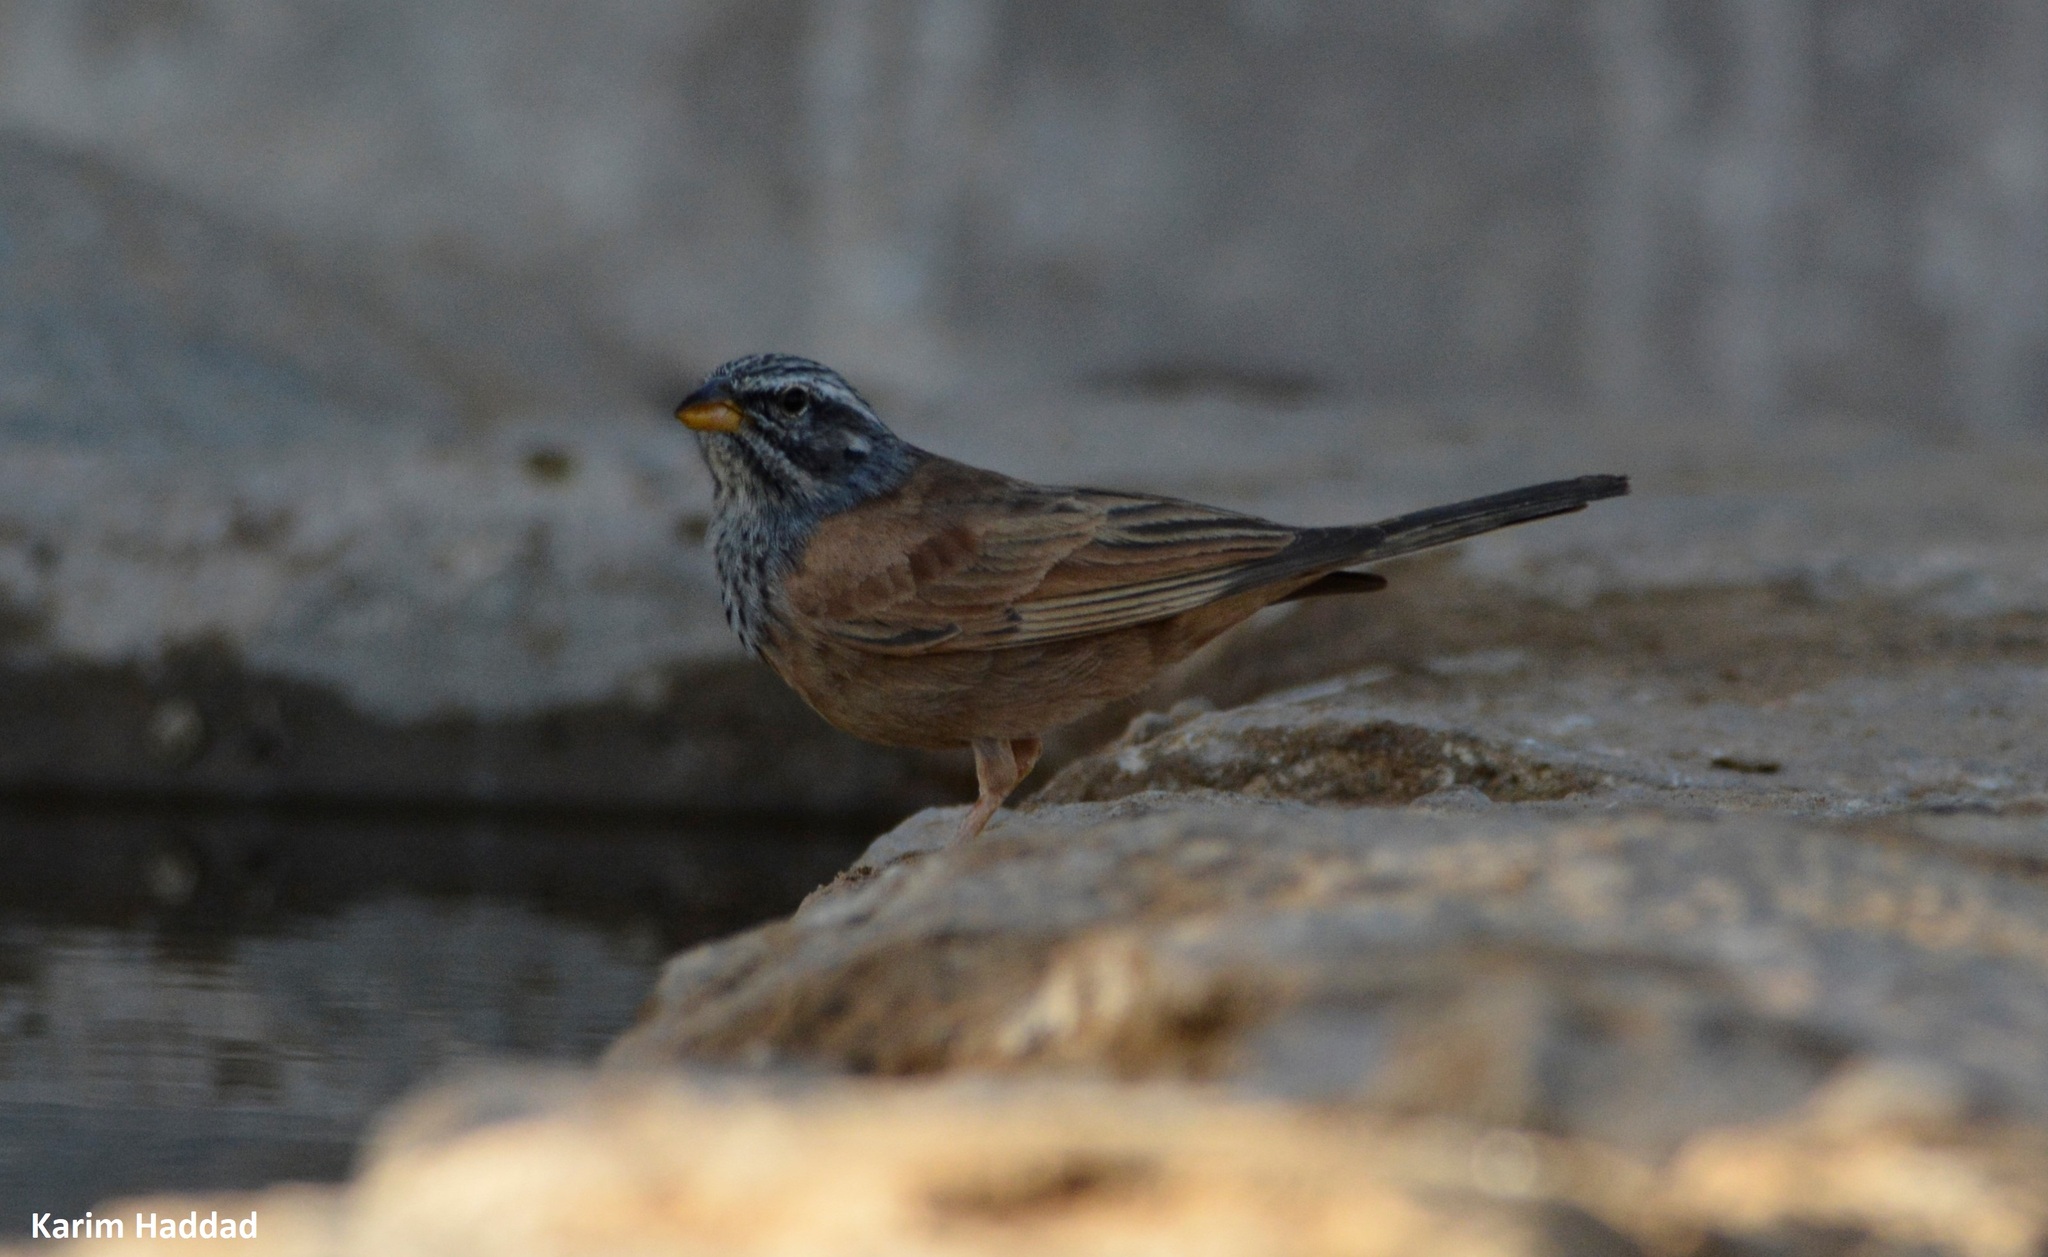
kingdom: Animalia
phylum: Chordata
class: Aves
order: Passeriformes
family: Emberizidae
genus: Emberiza
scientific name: Emberiza sahari
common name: House bunting
